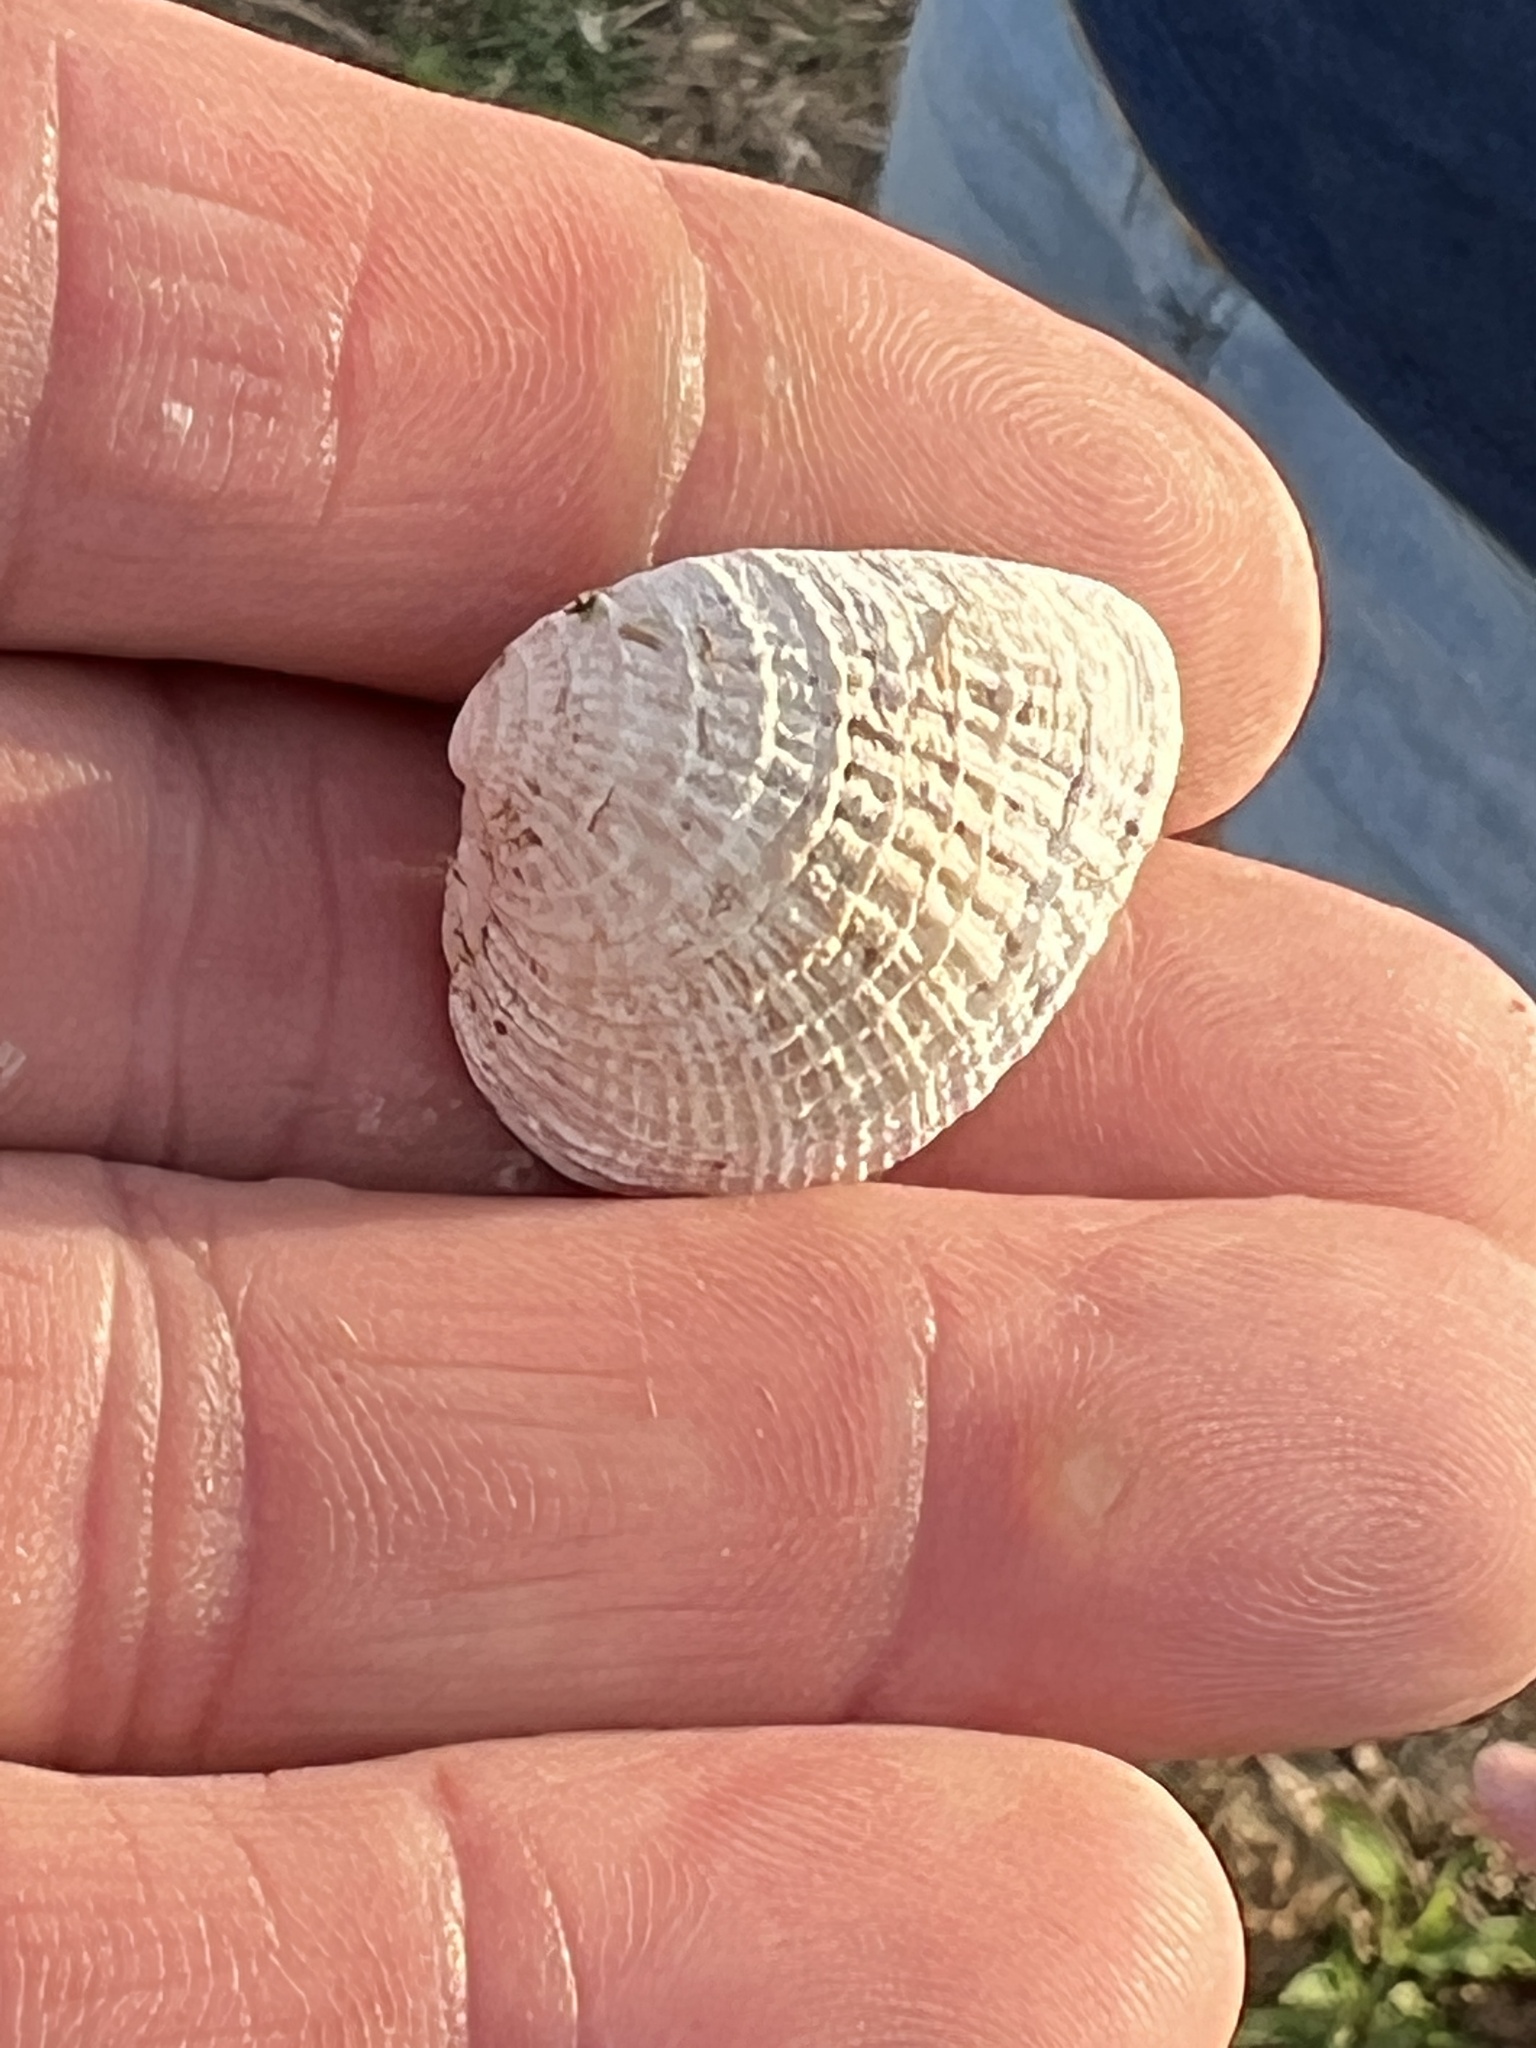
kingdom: Animalia
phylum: Mollusca
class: Bivalvia
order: Venerida
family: Veneridae
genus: Chione
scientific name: Chione elevata
